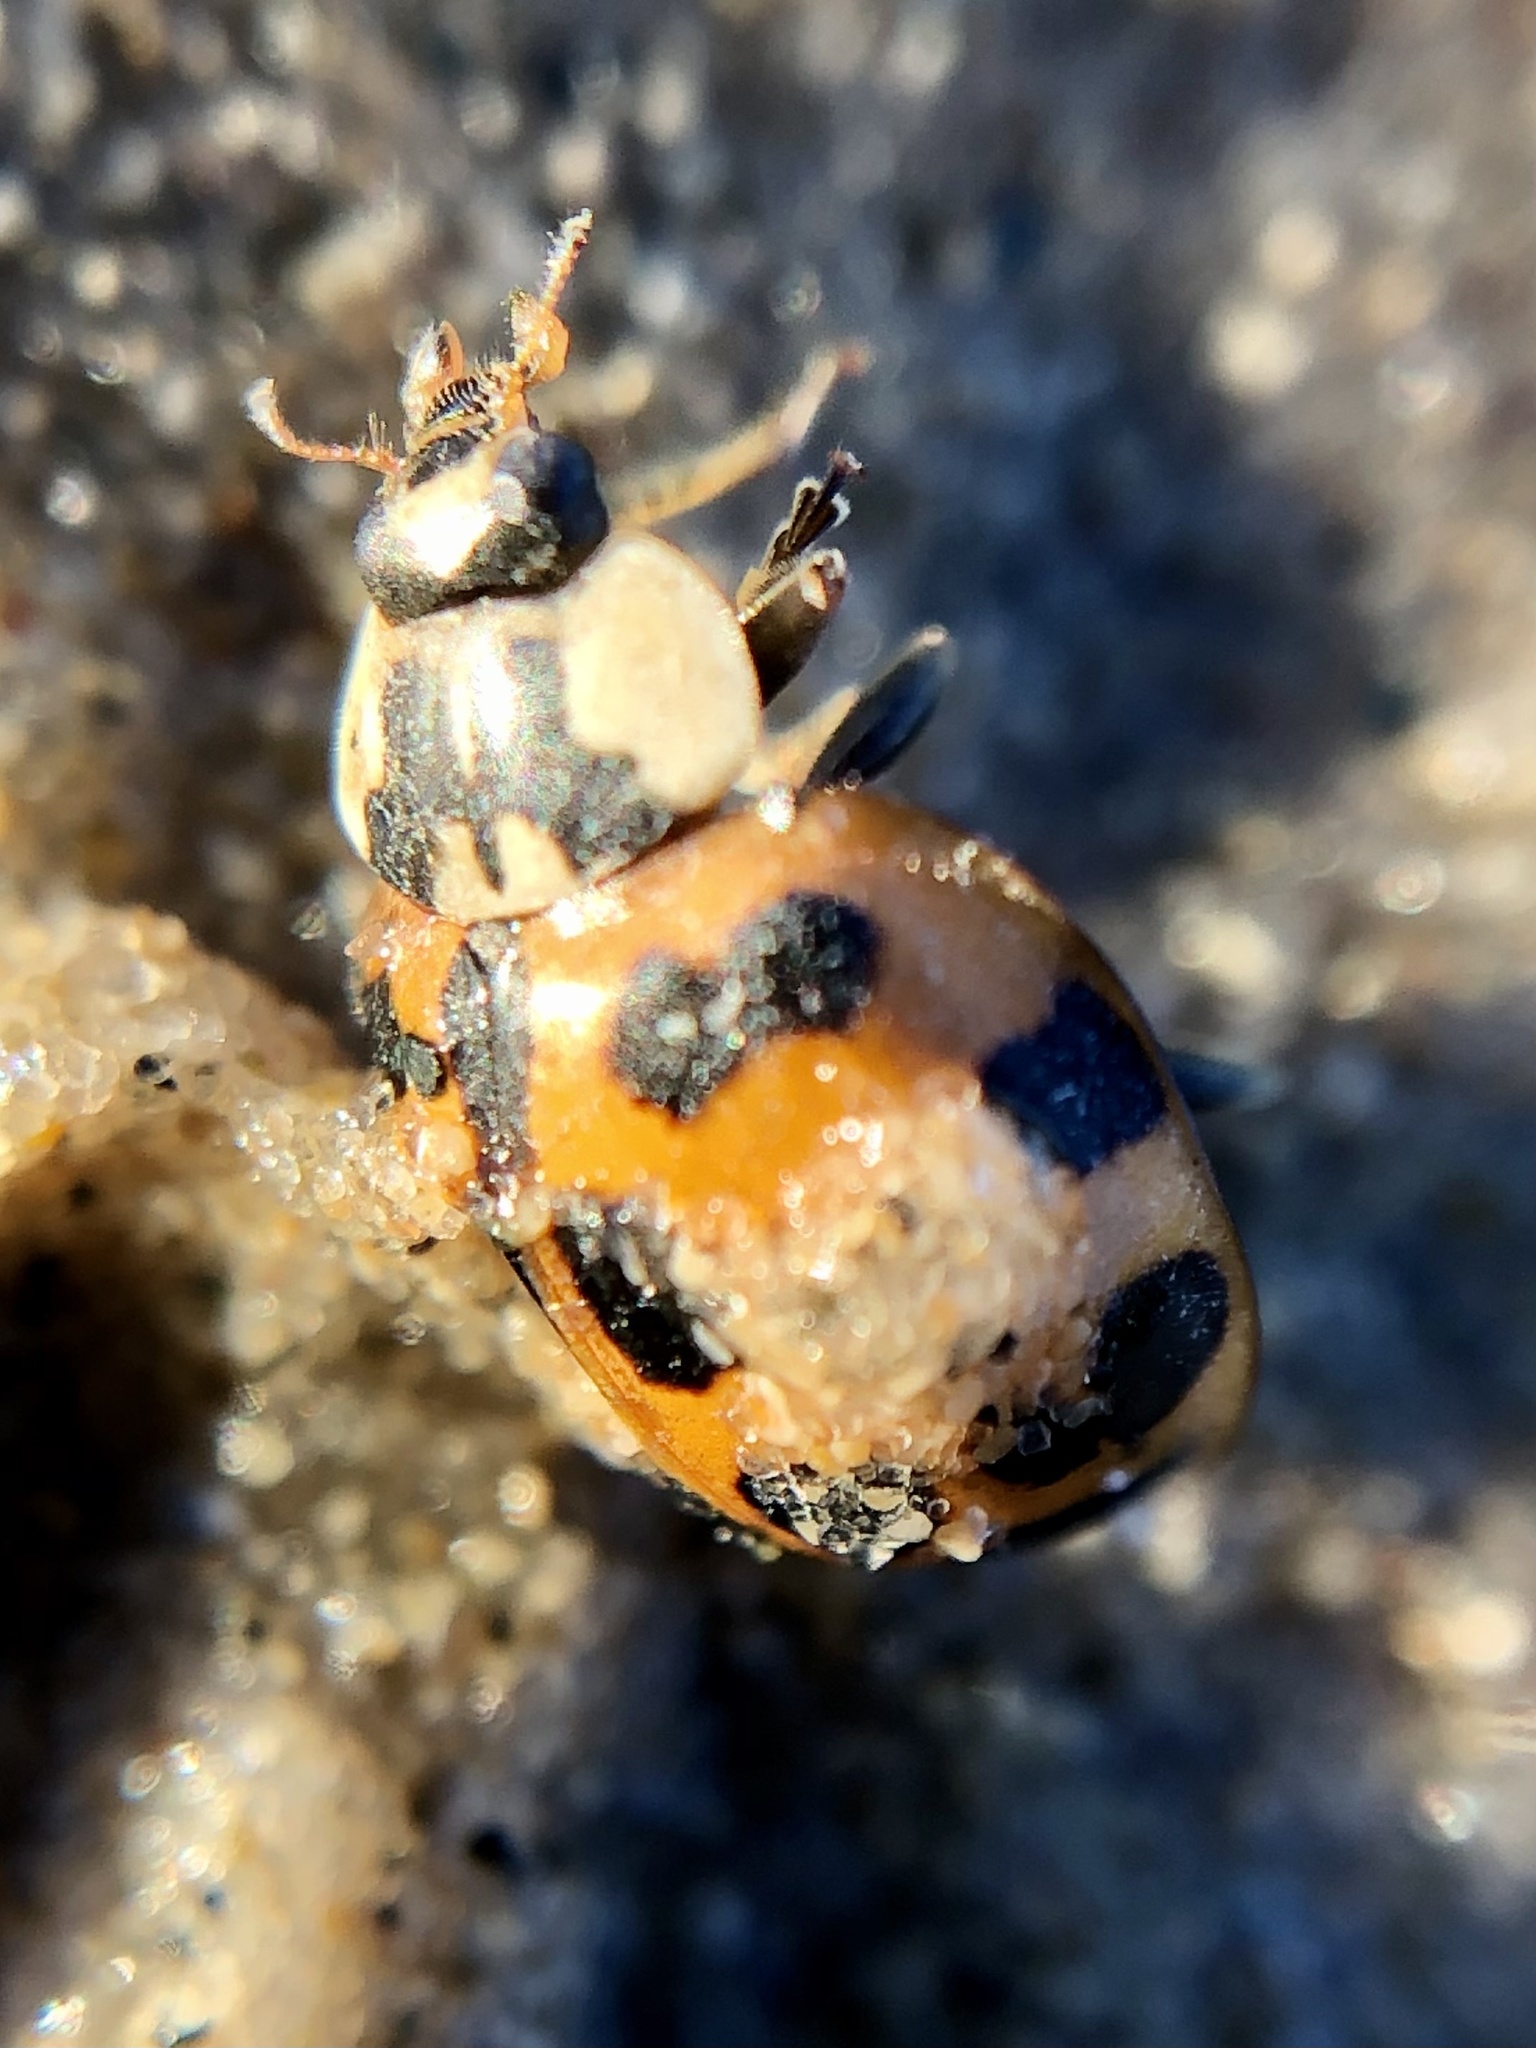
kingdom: Animalia
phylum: Arthropoda
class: Insecta
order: Coleoptera
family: Coccinellidae
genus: Harmonia
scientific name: Harmonia axyridis
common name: Harlequin ladybird
